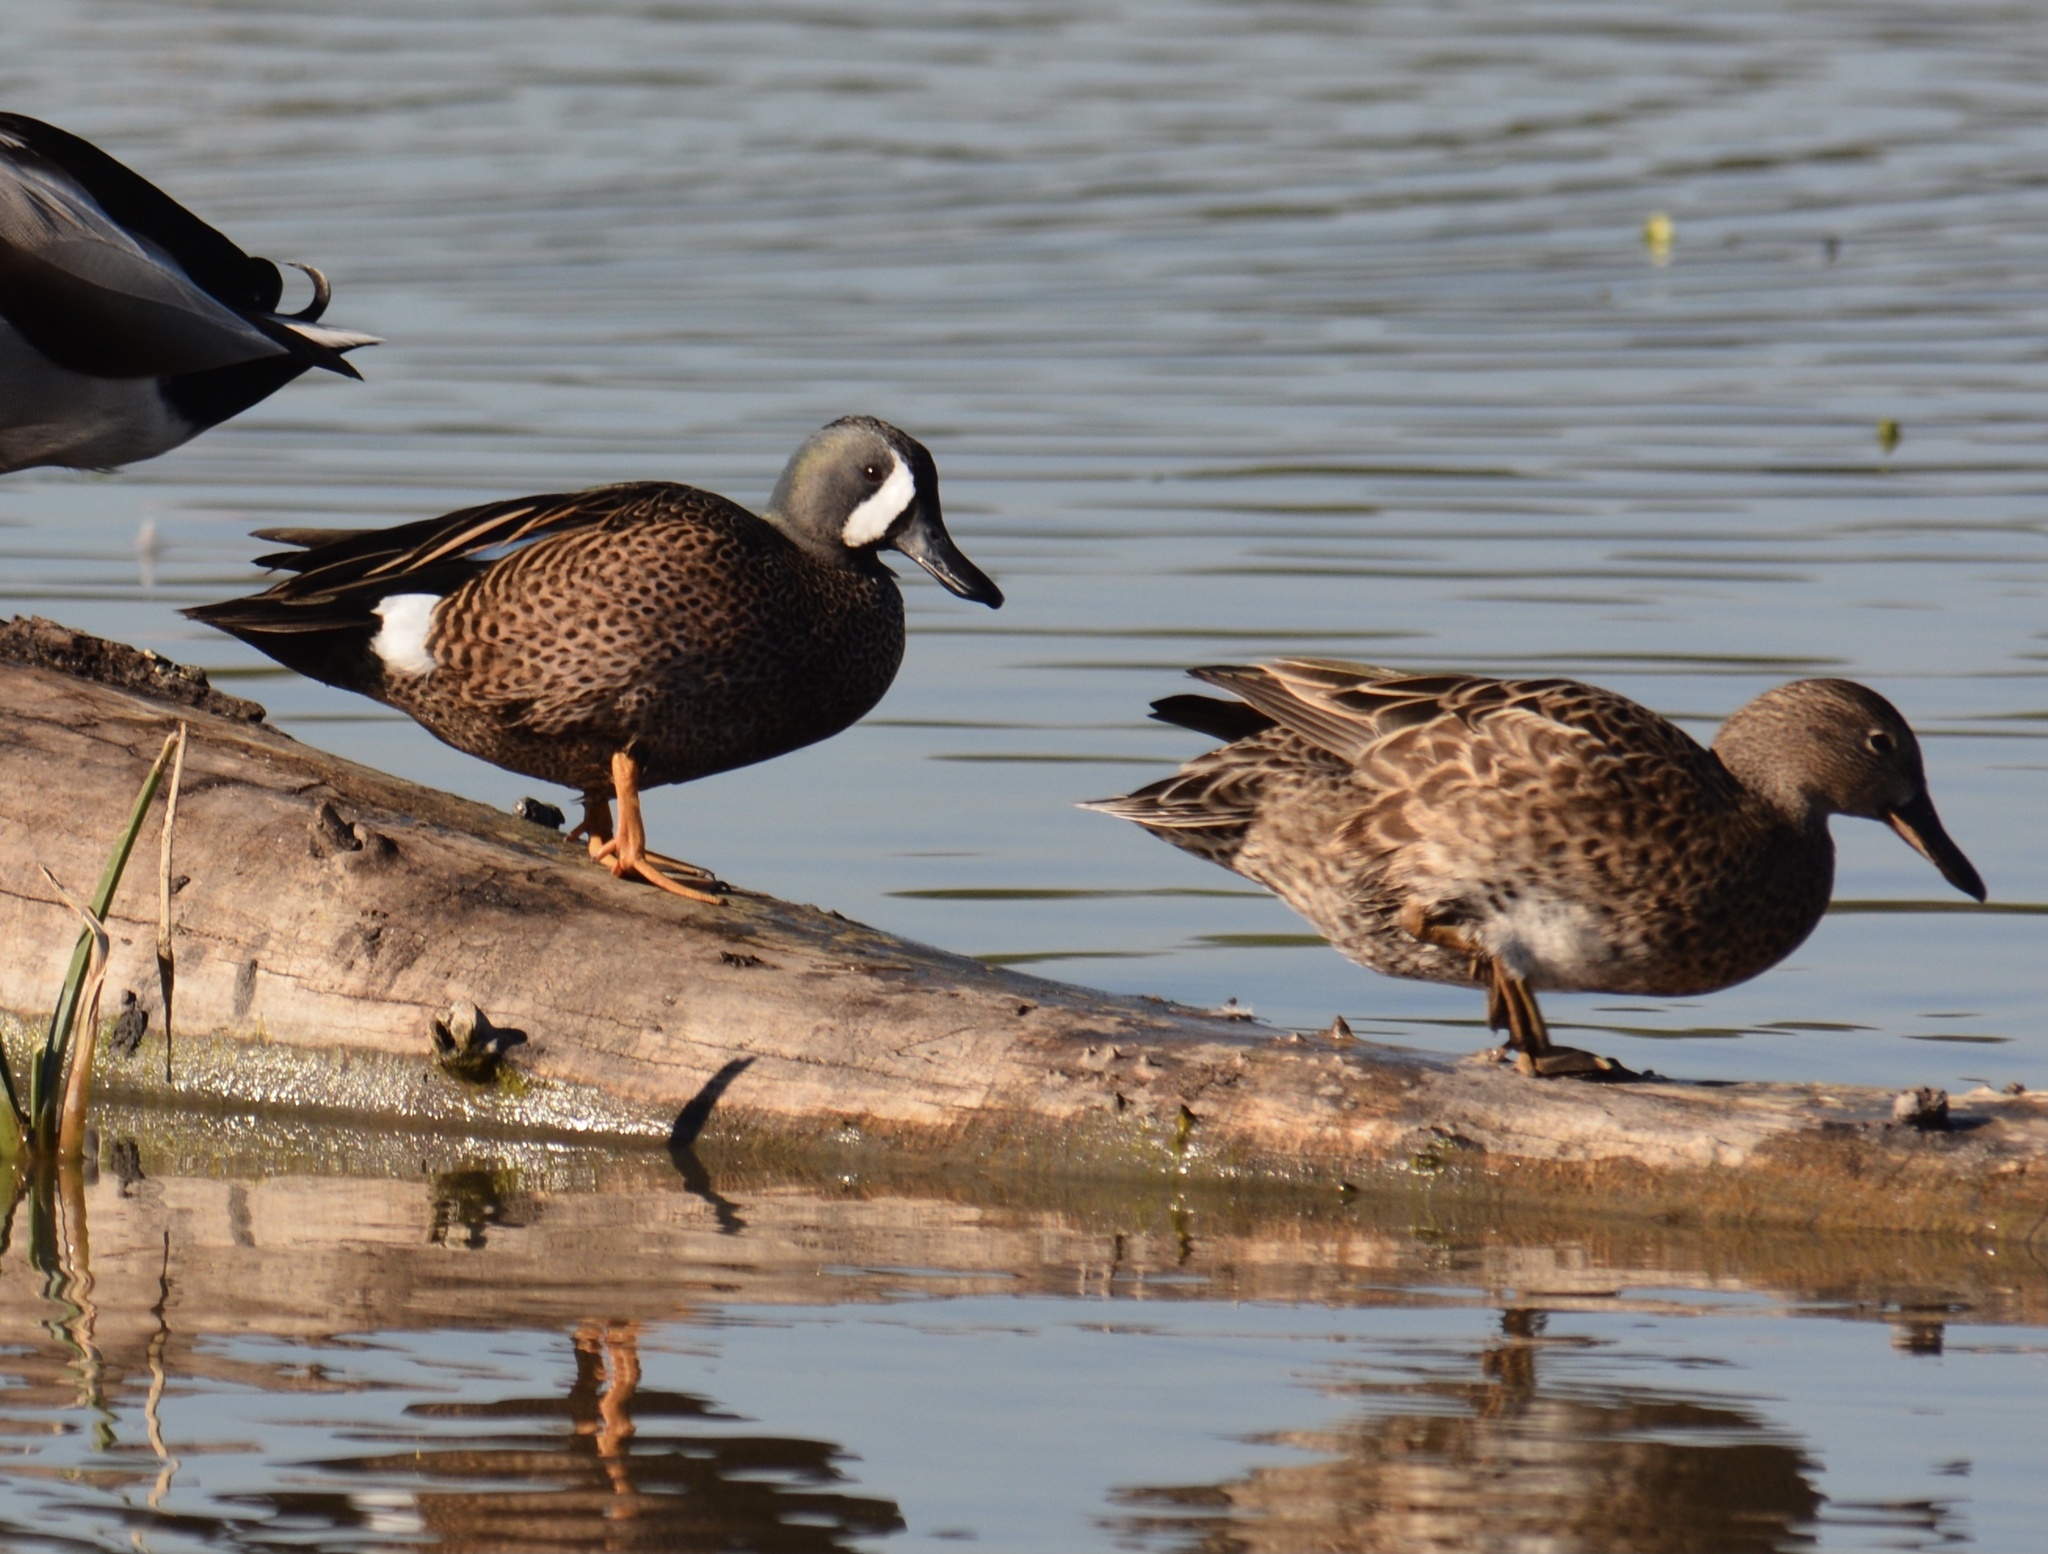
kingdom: Animalia
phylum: Chordata
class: Aves
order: Anseriformes
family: Anatidae
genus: Spatula
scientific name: Spatula discors
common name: Blue-winged teal
